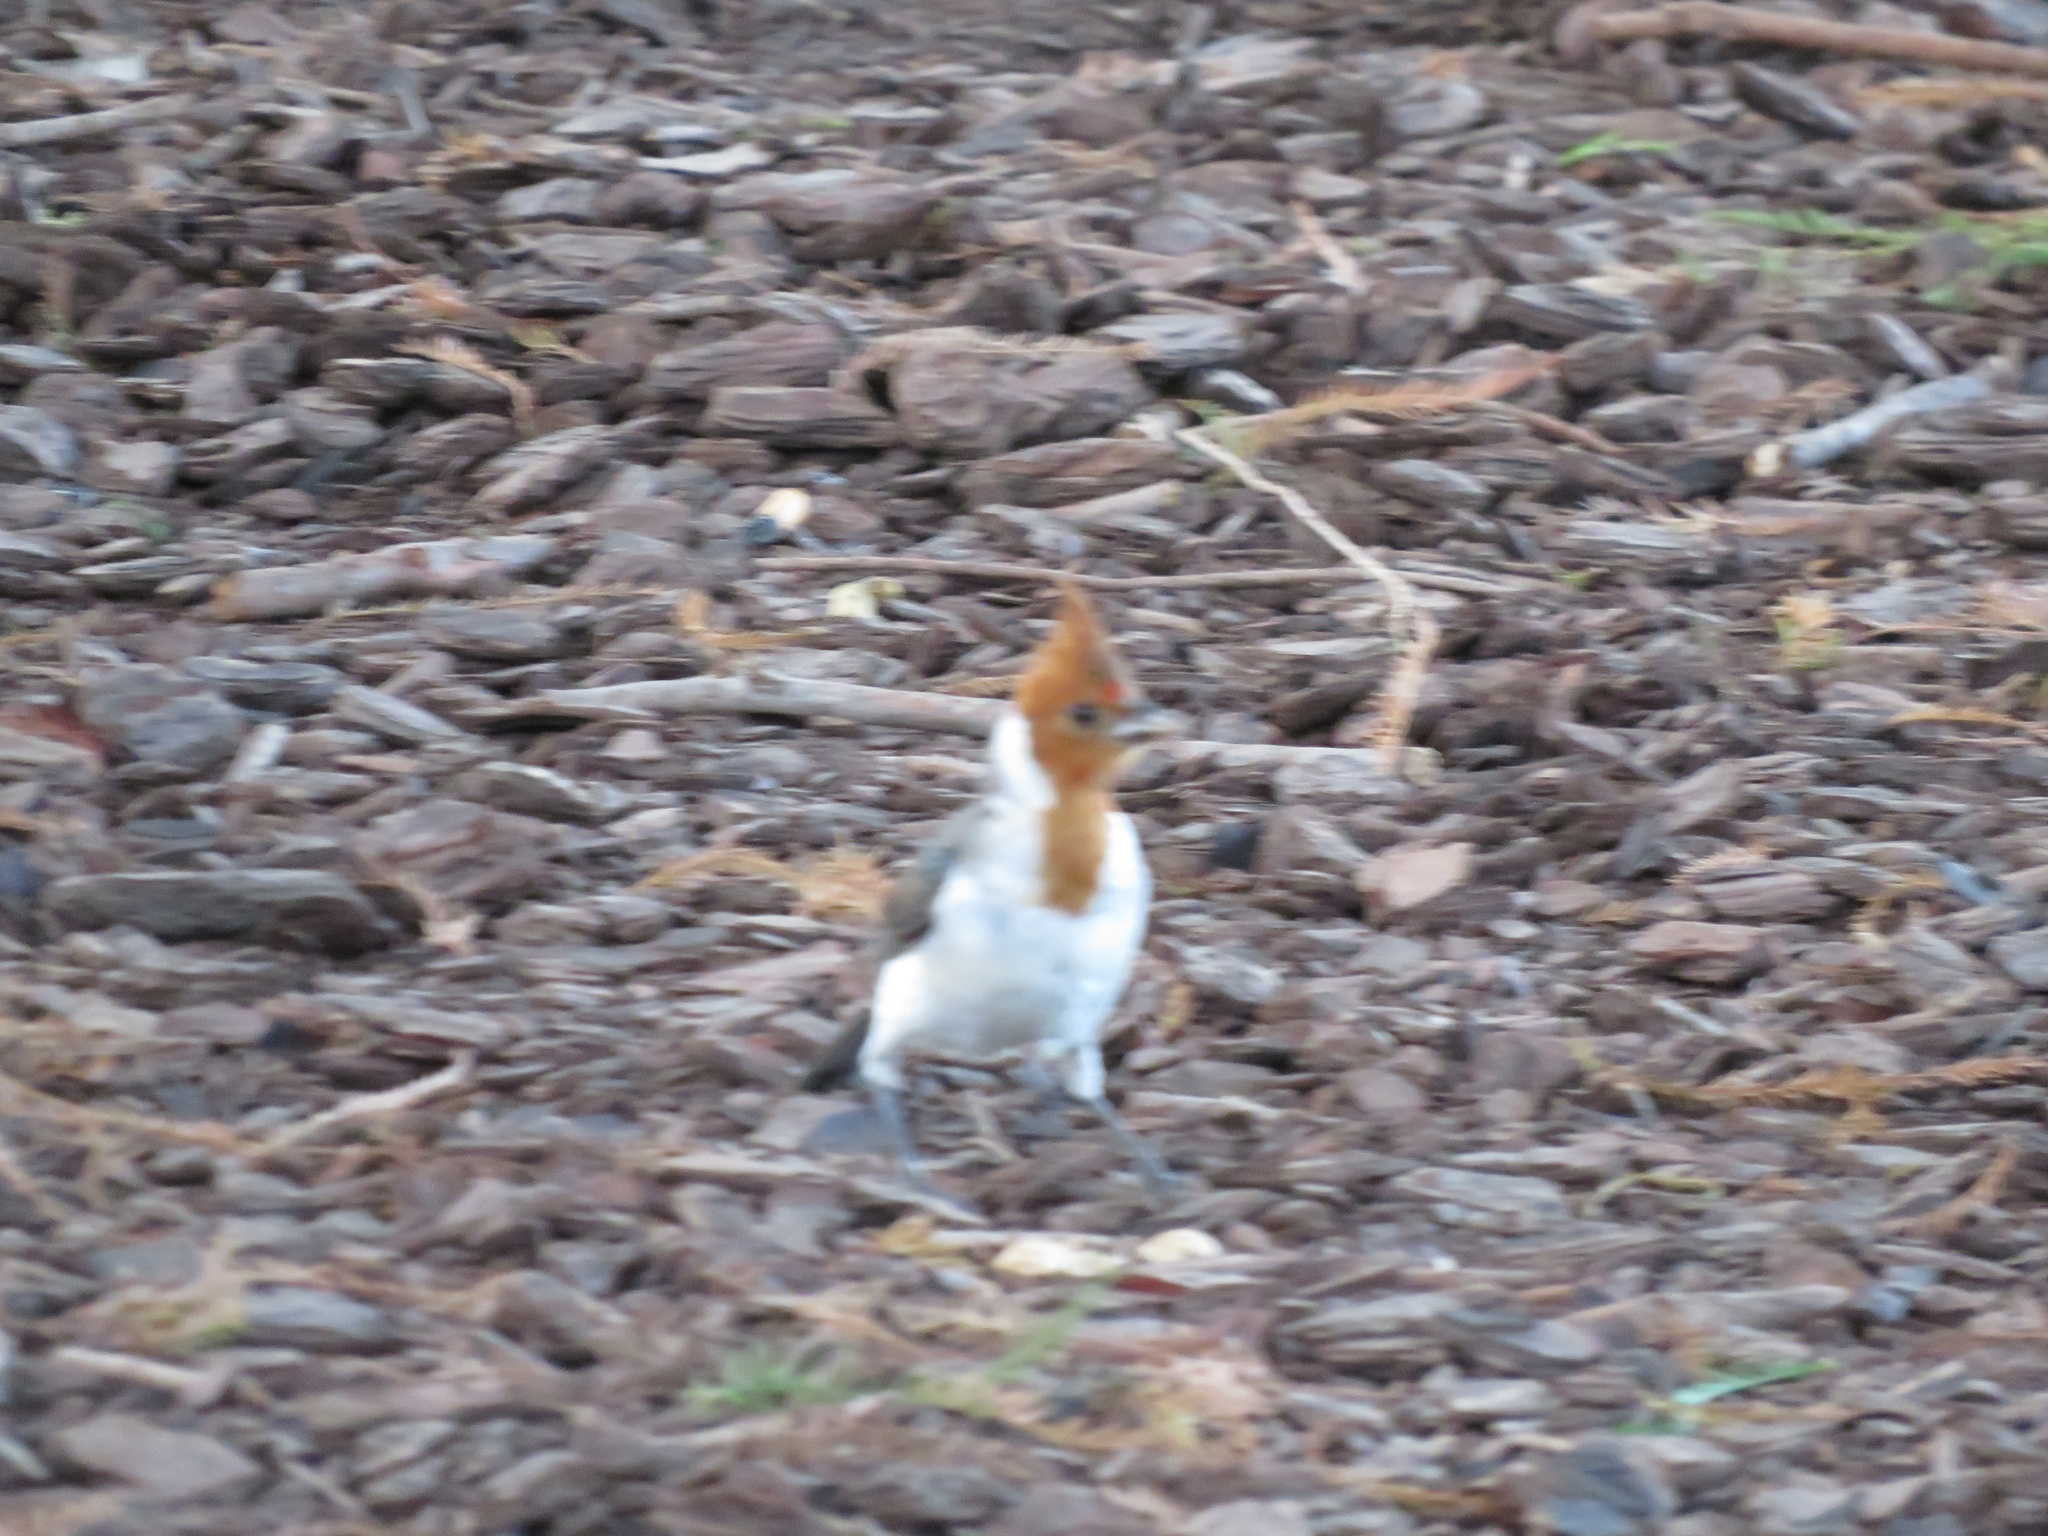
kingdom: Animalia
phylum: Chordata
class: Aves
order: Passeriformes
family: Thraupidae
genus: Paroaria
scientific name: Paroaria coronata
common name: Red-crested cardinal
